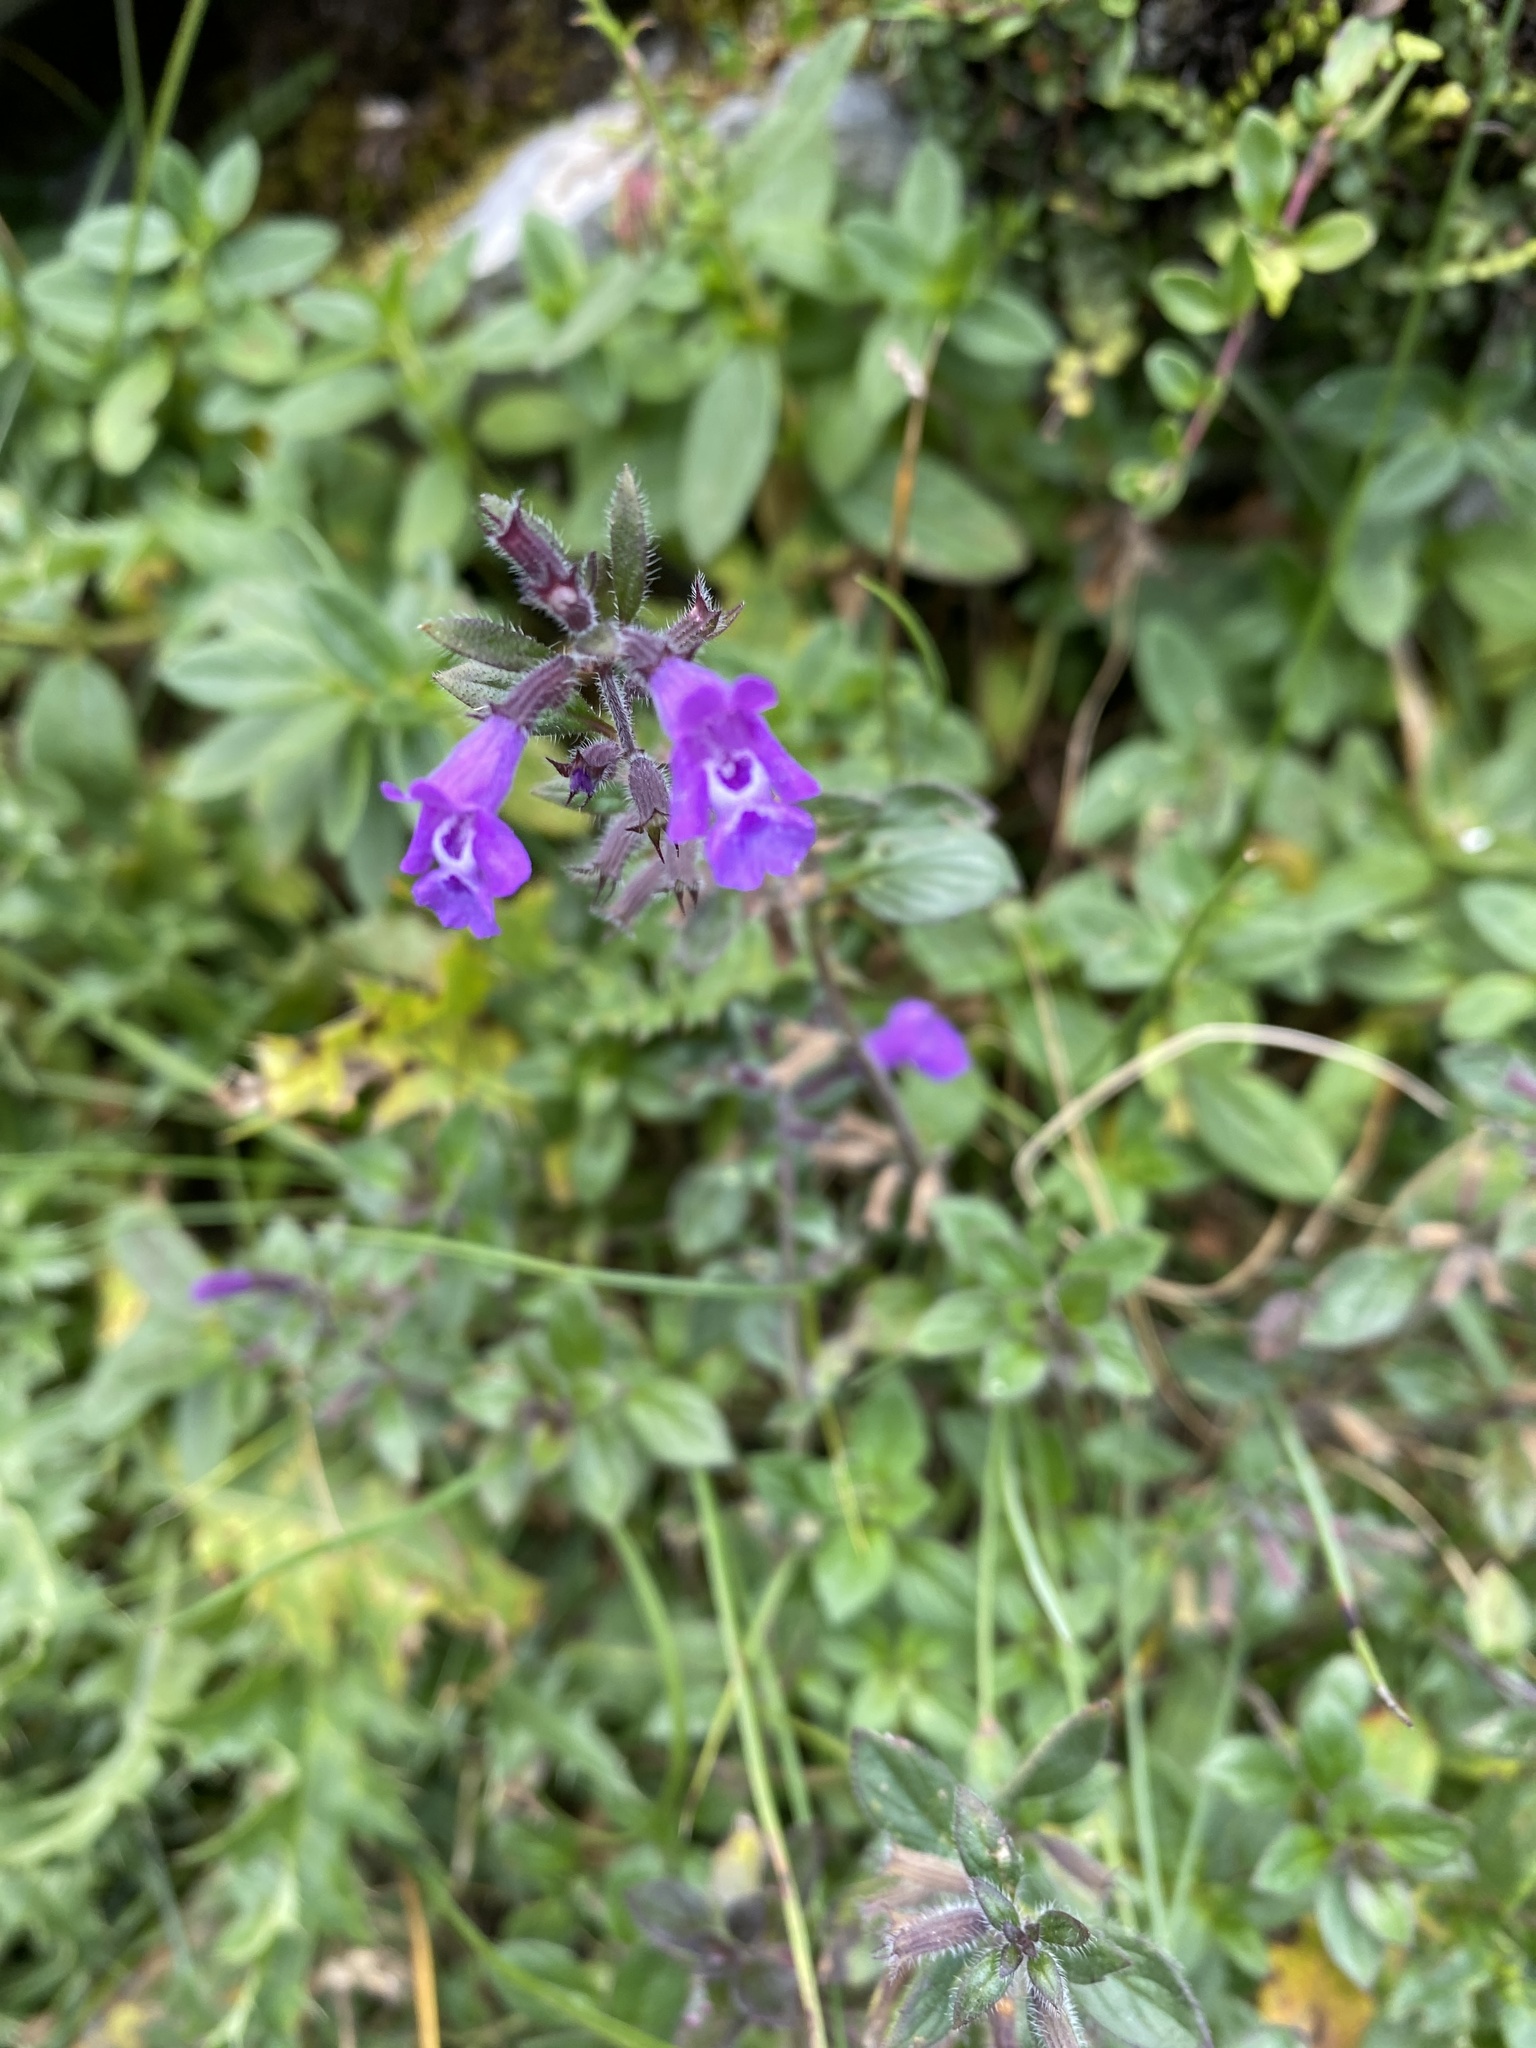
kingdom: Plantae
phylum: Tracheophyta
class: Magnoliopsida
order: Lamiales
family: Lamiaceae
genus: Clinopodium
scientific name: Clinopodium alpinum
